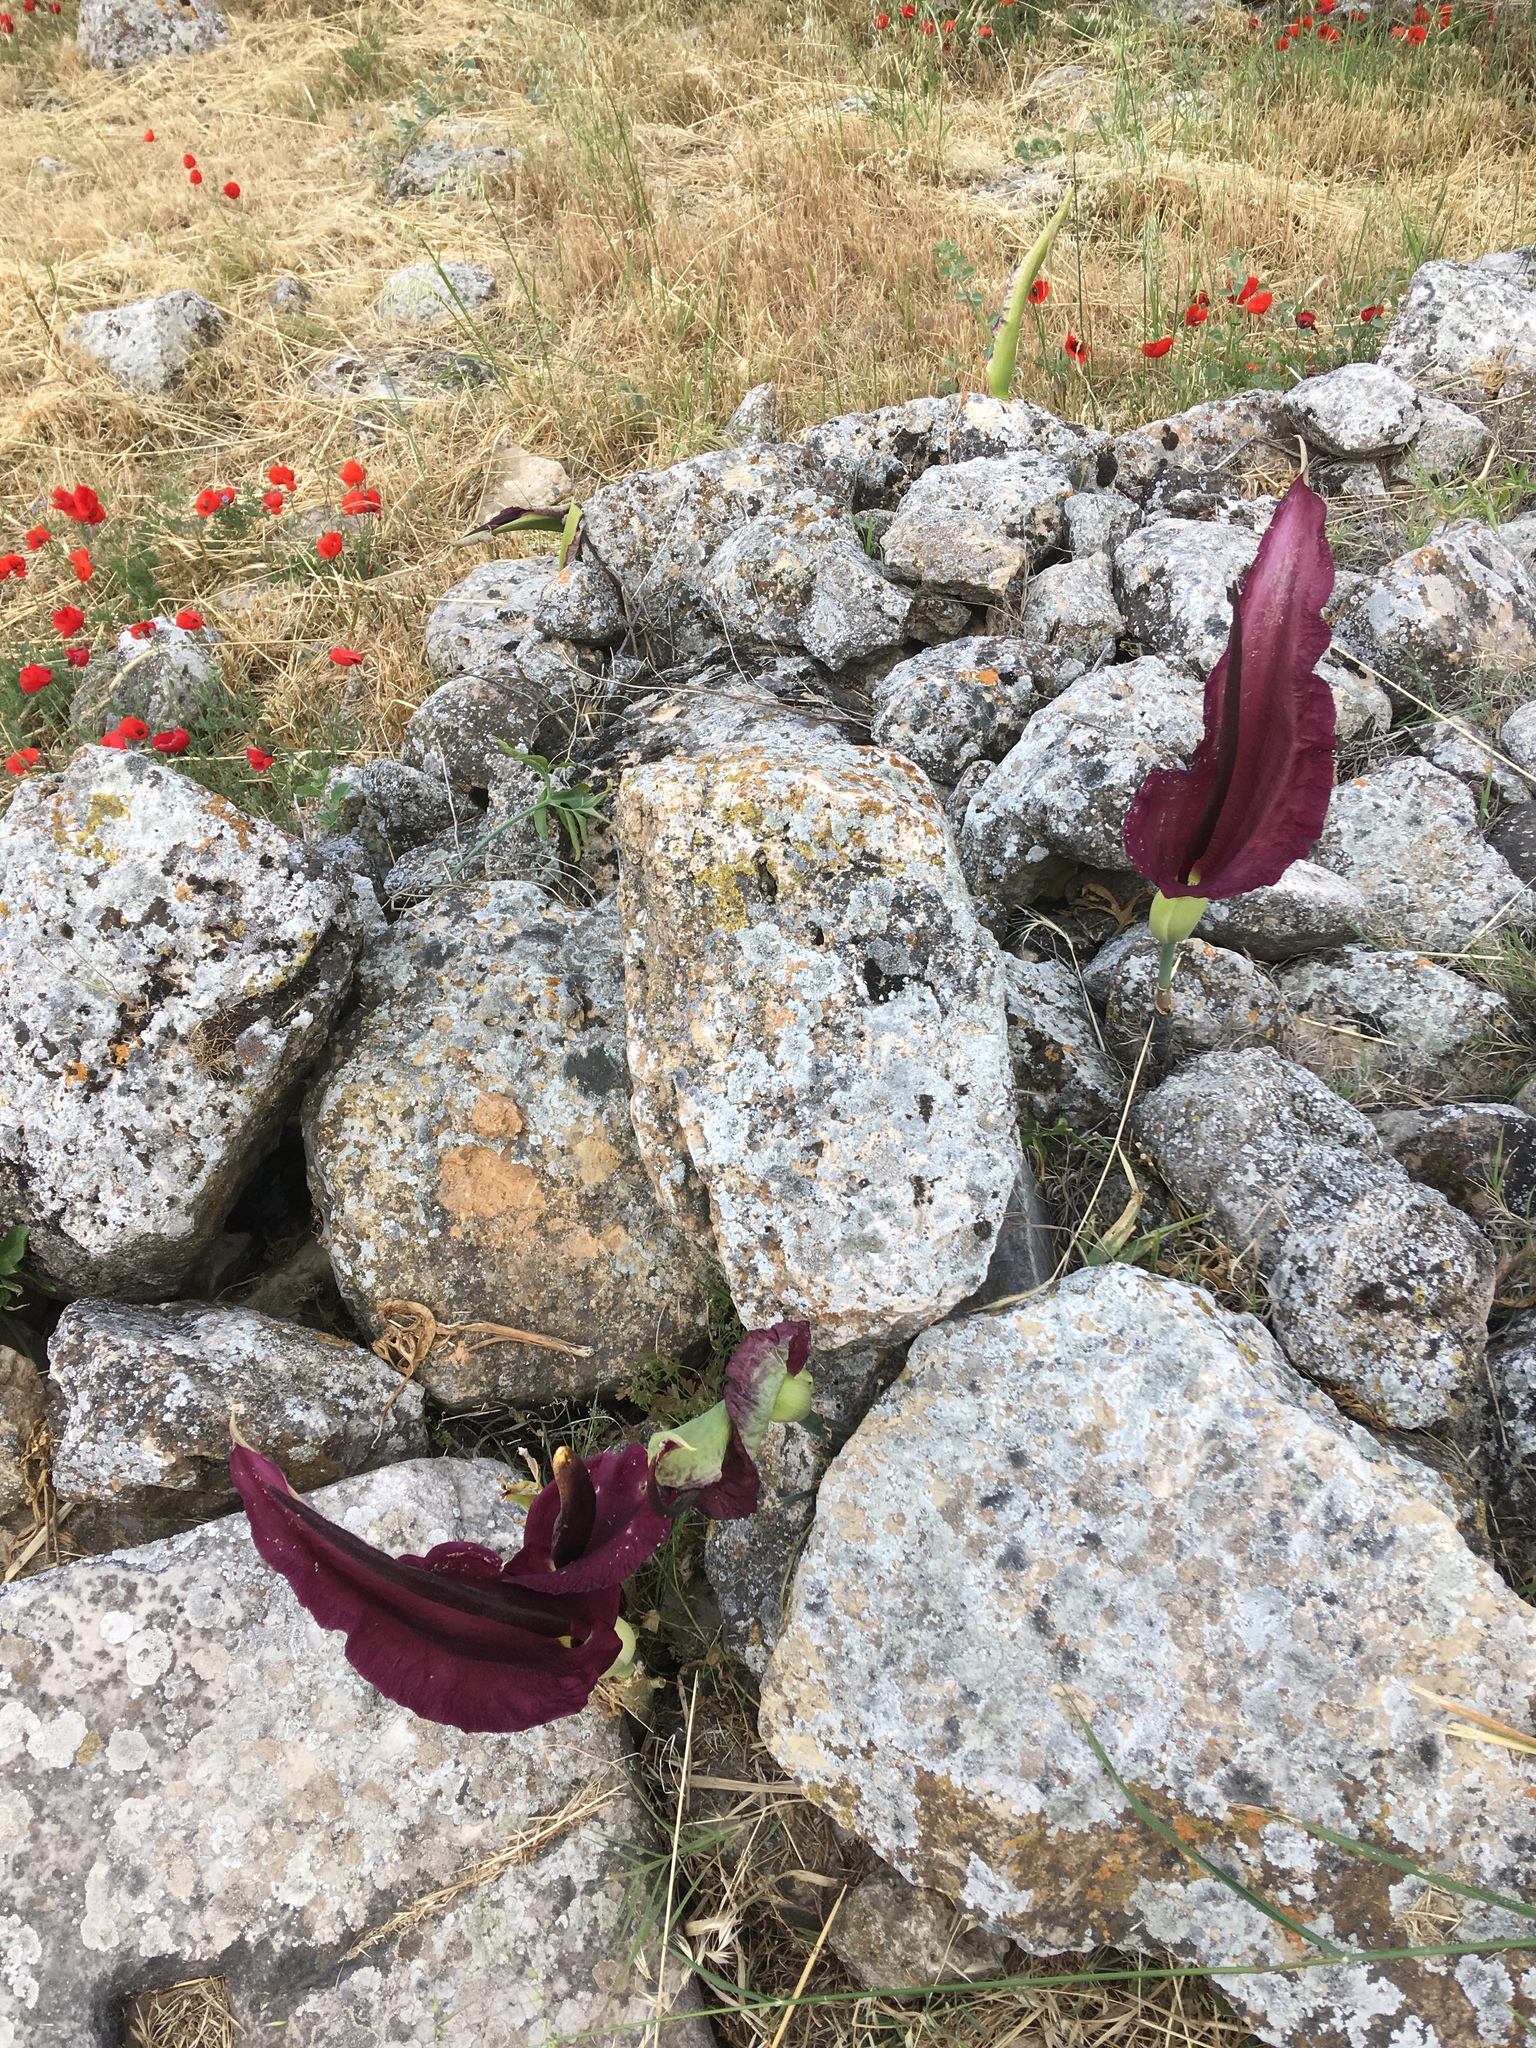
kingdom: Plantae
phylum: Tracheophyta
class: Liliopsida
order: Alismatales
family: Araceae
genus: Dracunculus
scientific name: Dracunculus vulgaris
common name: Dragon arum
